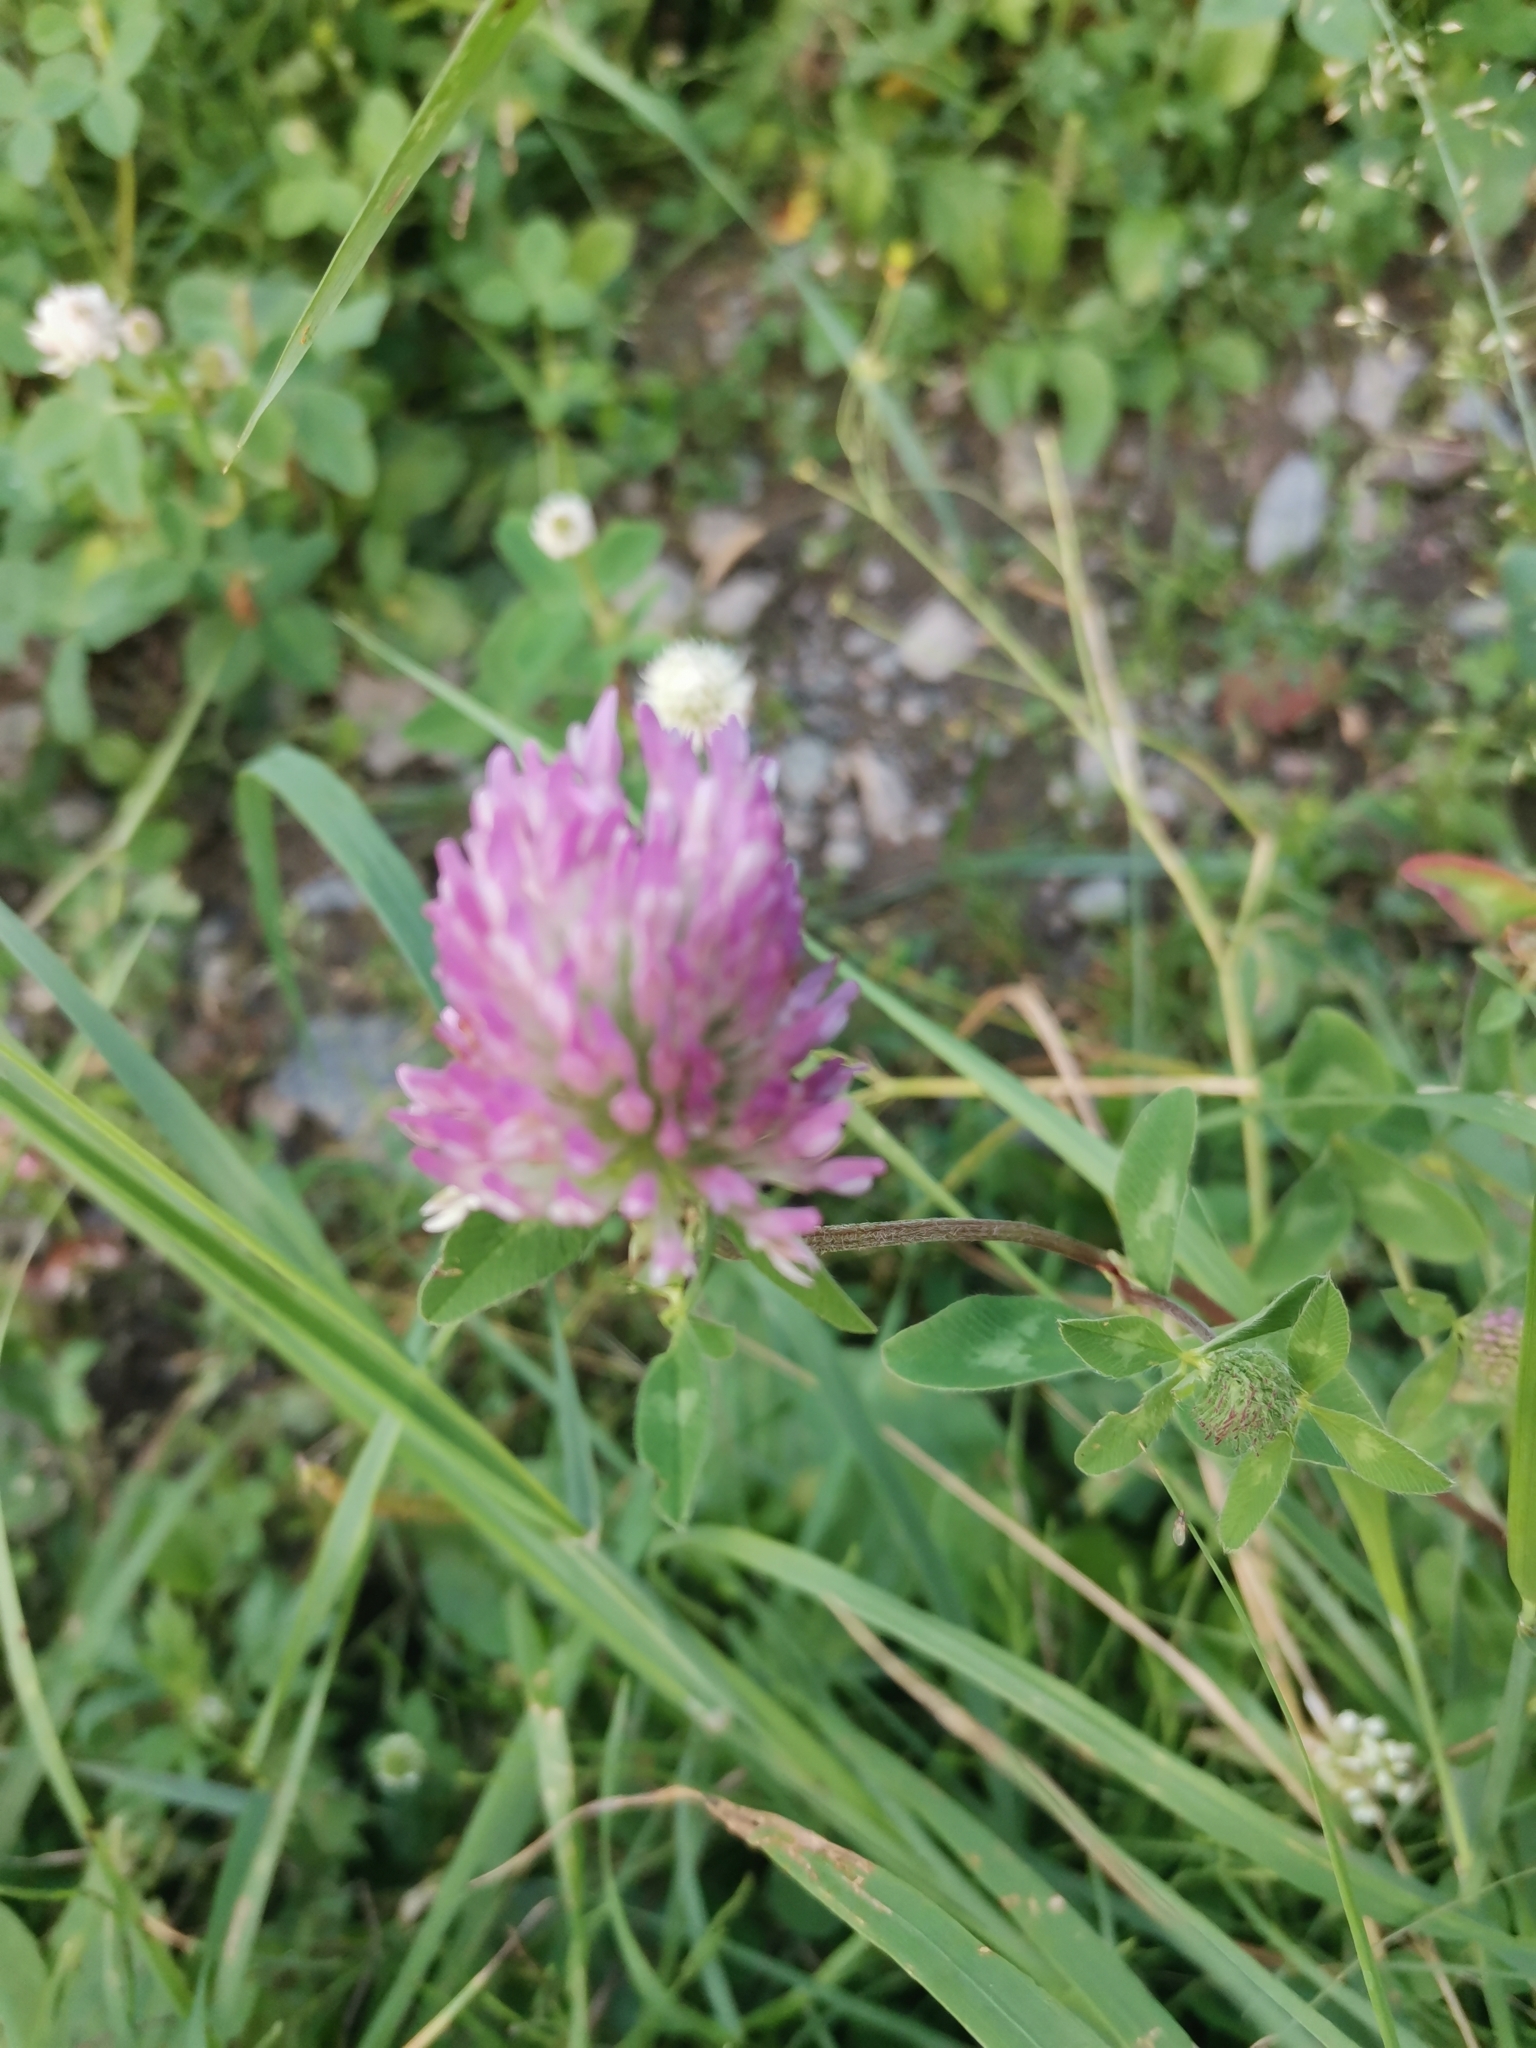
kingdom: Plantae
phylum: Tracheophyta
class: Magnoliopsida
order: Fabales
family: Fabaceae
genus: Trifolium
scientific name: Trifolium pratense
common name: Red clover
